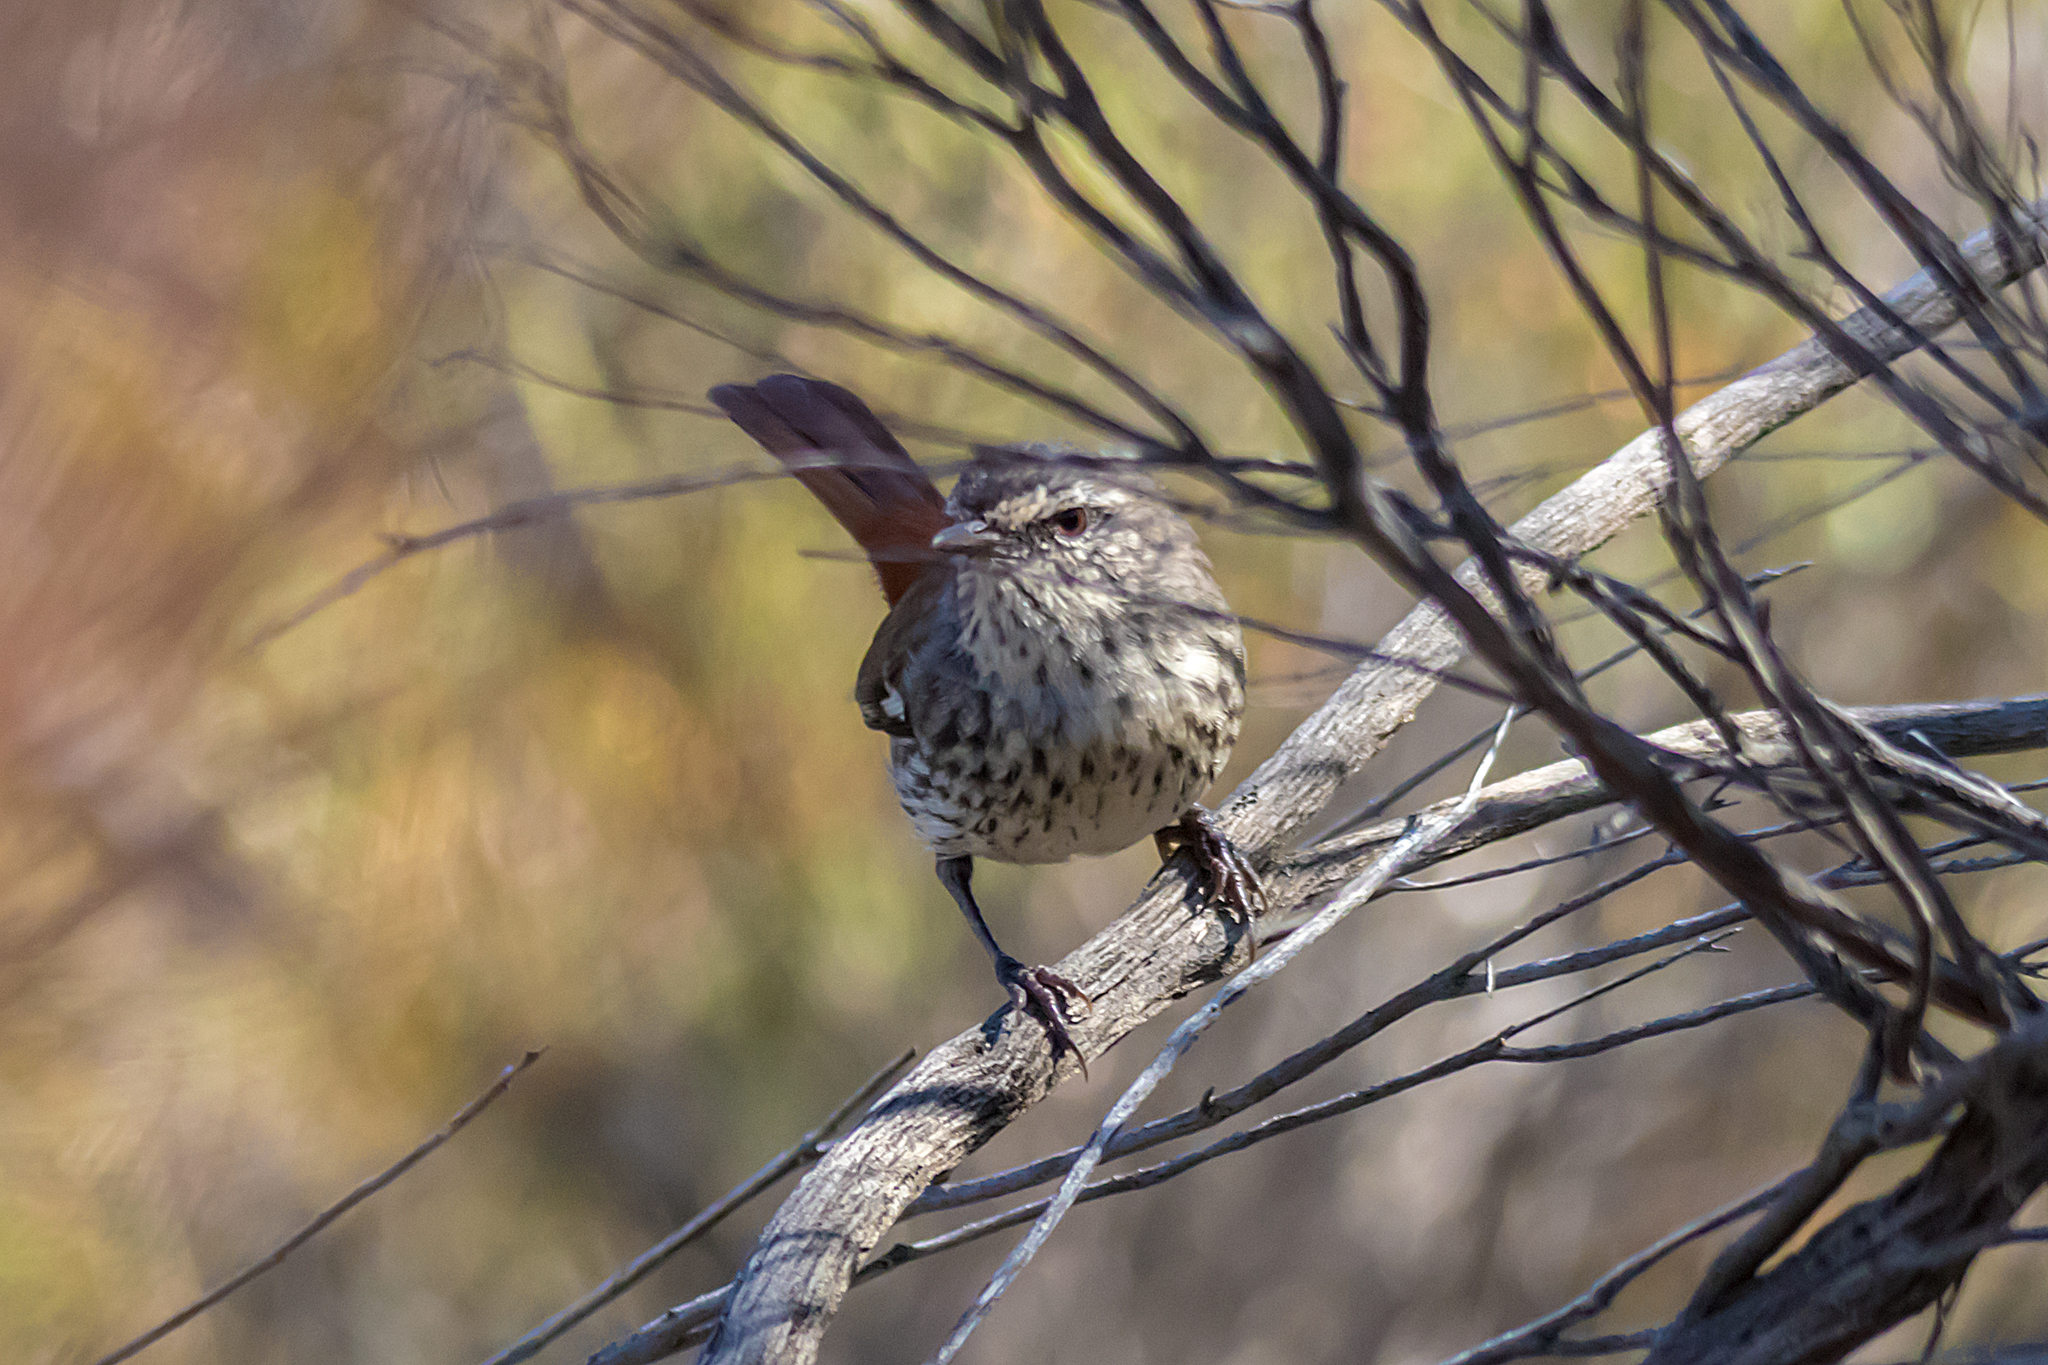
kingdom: Animalia
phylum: Chordata
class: Aves
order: Passeriformes
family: Acanthizidae
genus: Calamanthus
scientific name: Calamanthus cautus
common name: Shy heathwren
